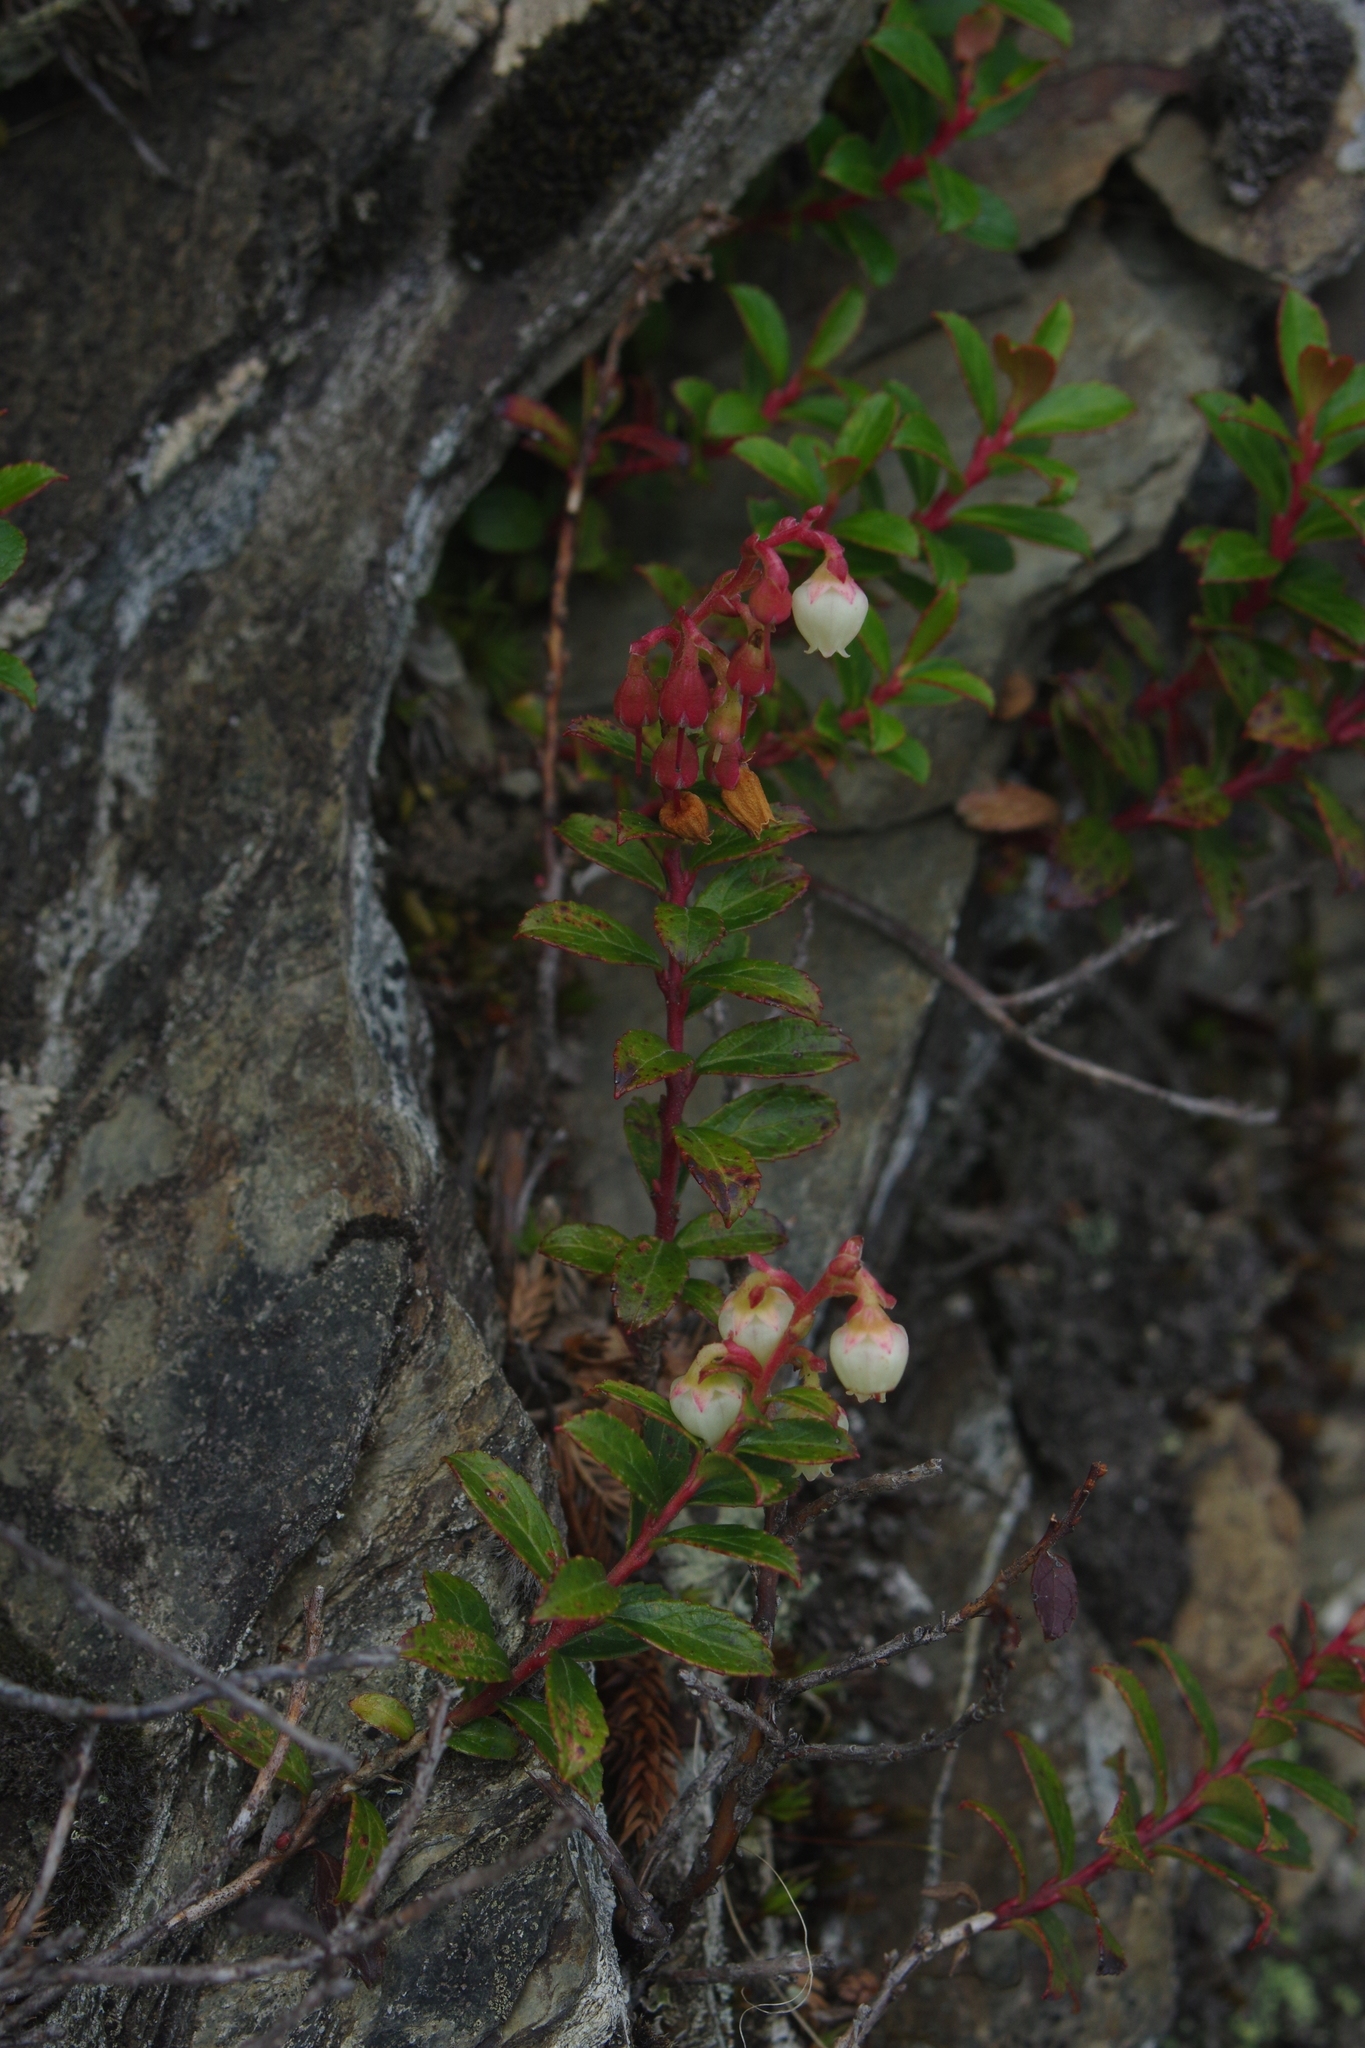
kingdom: Plantae
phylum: Tracheophyta
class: Magnoliopsida
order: Ericales
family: Ericaceae
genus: Gaultheria
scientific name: Gaultheria borneensis
